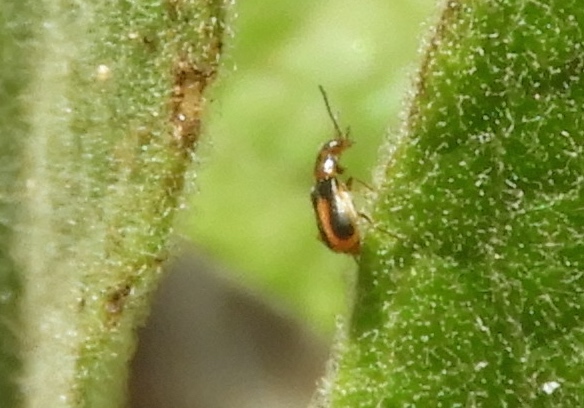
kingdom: Animalia
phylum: Arthropoda
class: Insecta
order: Coleoptera
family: Malachiidae
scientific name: Malachiidae
